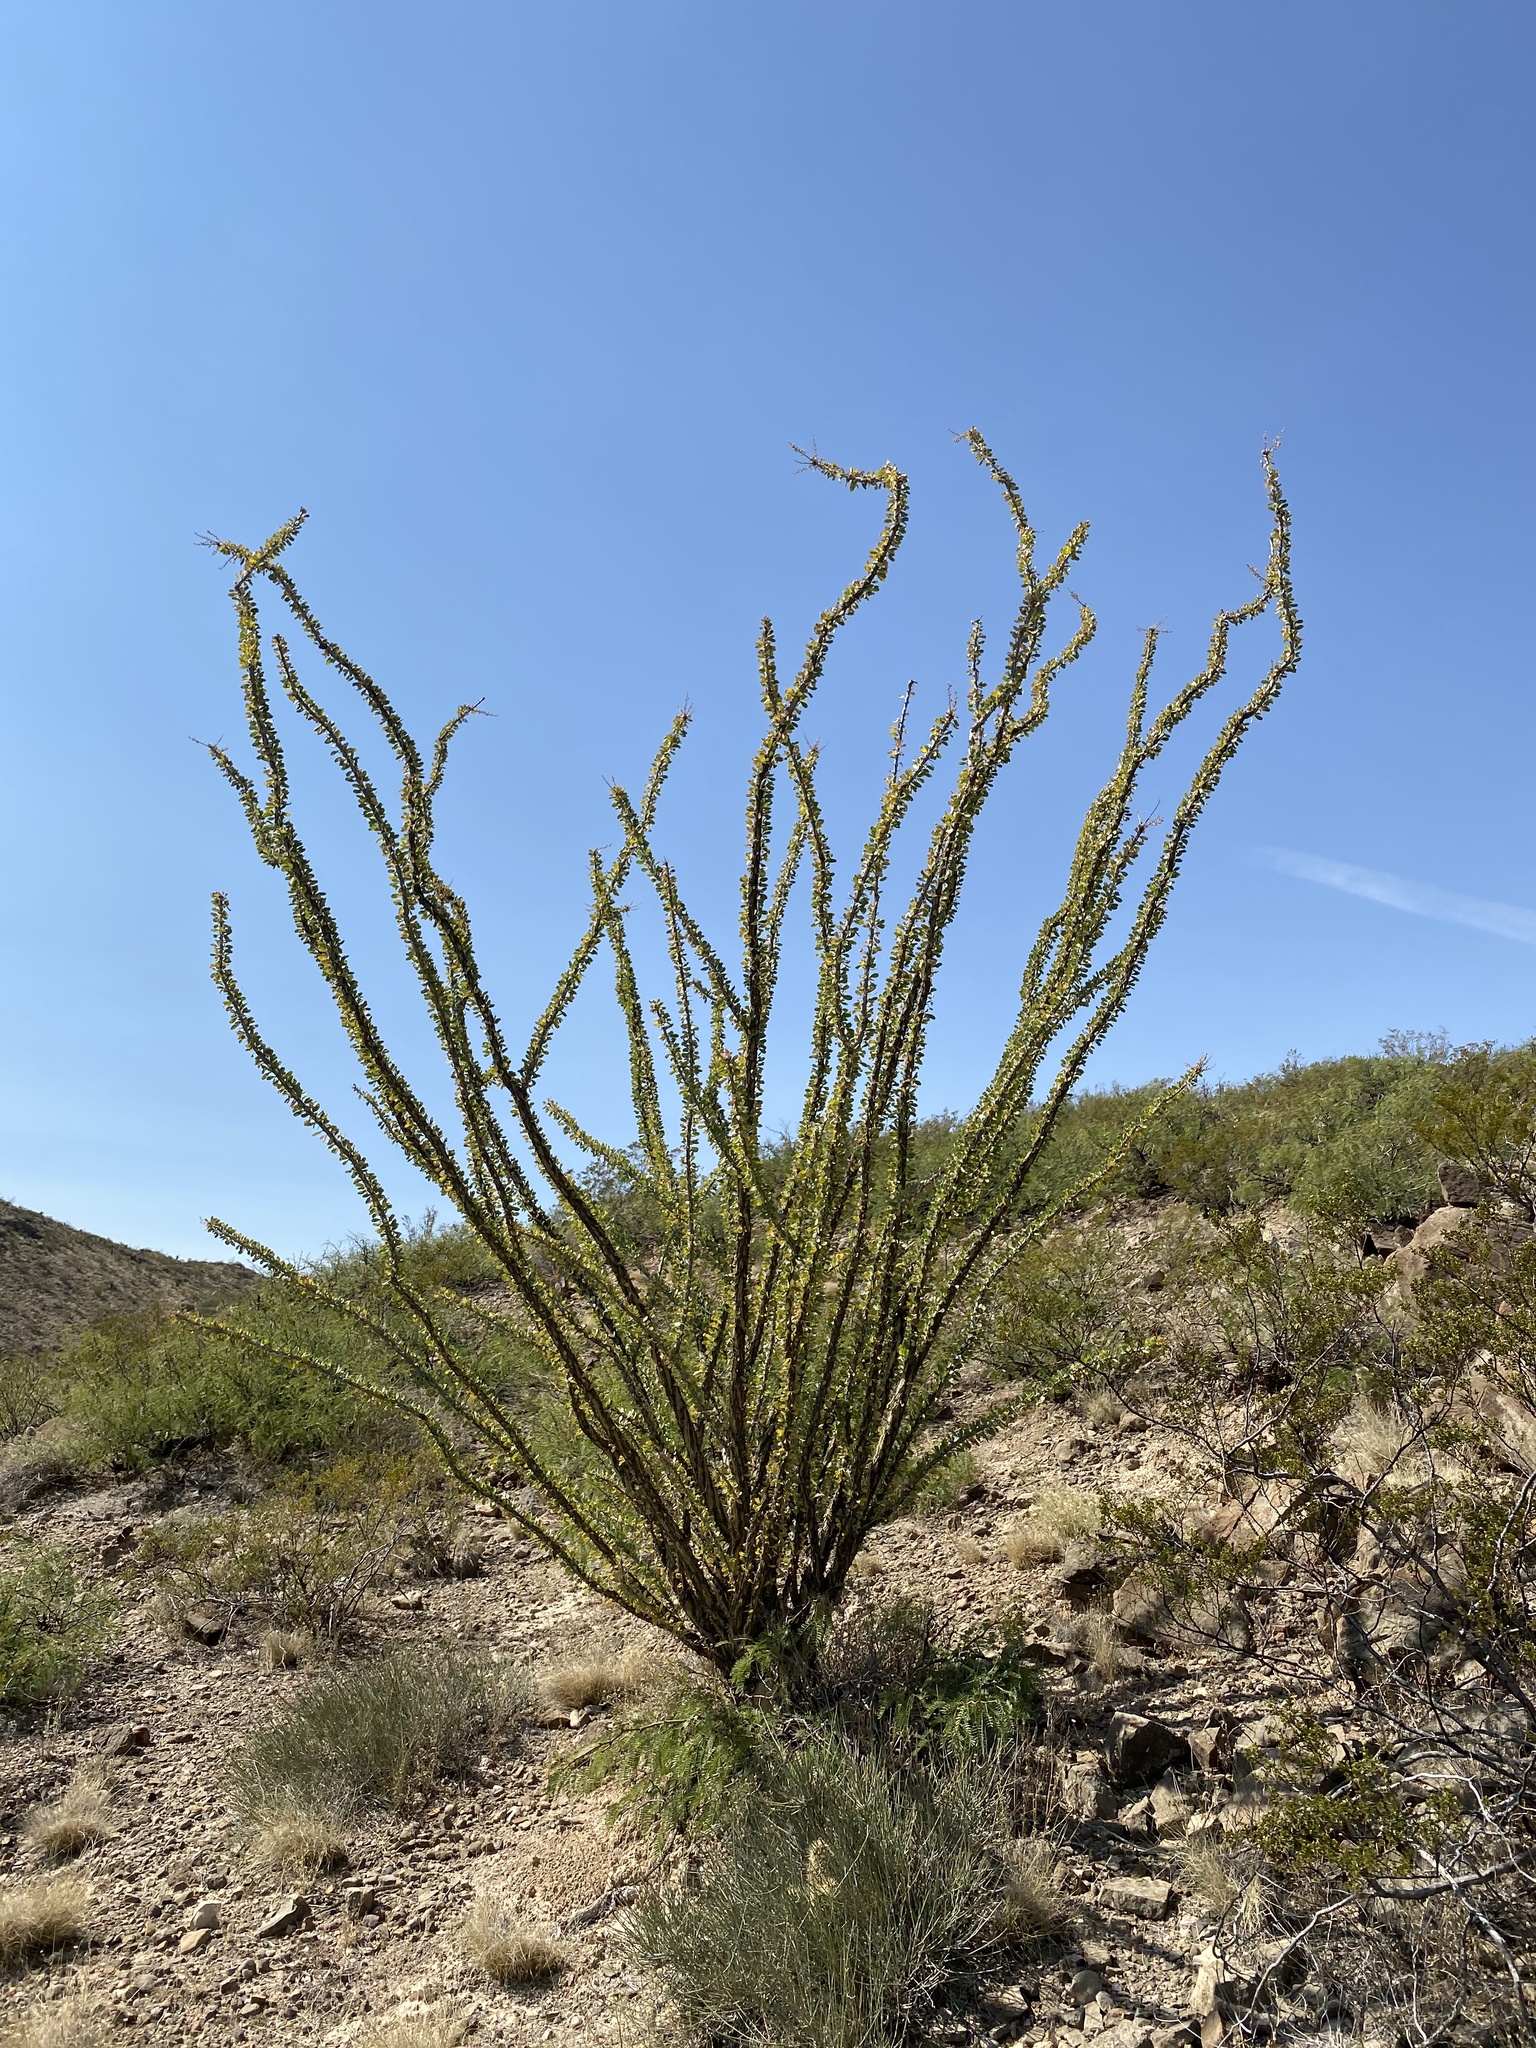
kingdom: Plantae
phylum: Tracheophyta
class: Magnoliopsida
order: Ericales
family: Fouquieriaceae
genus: Fouquieria
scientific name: Fouquieria splendens
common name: Vine-cactus
